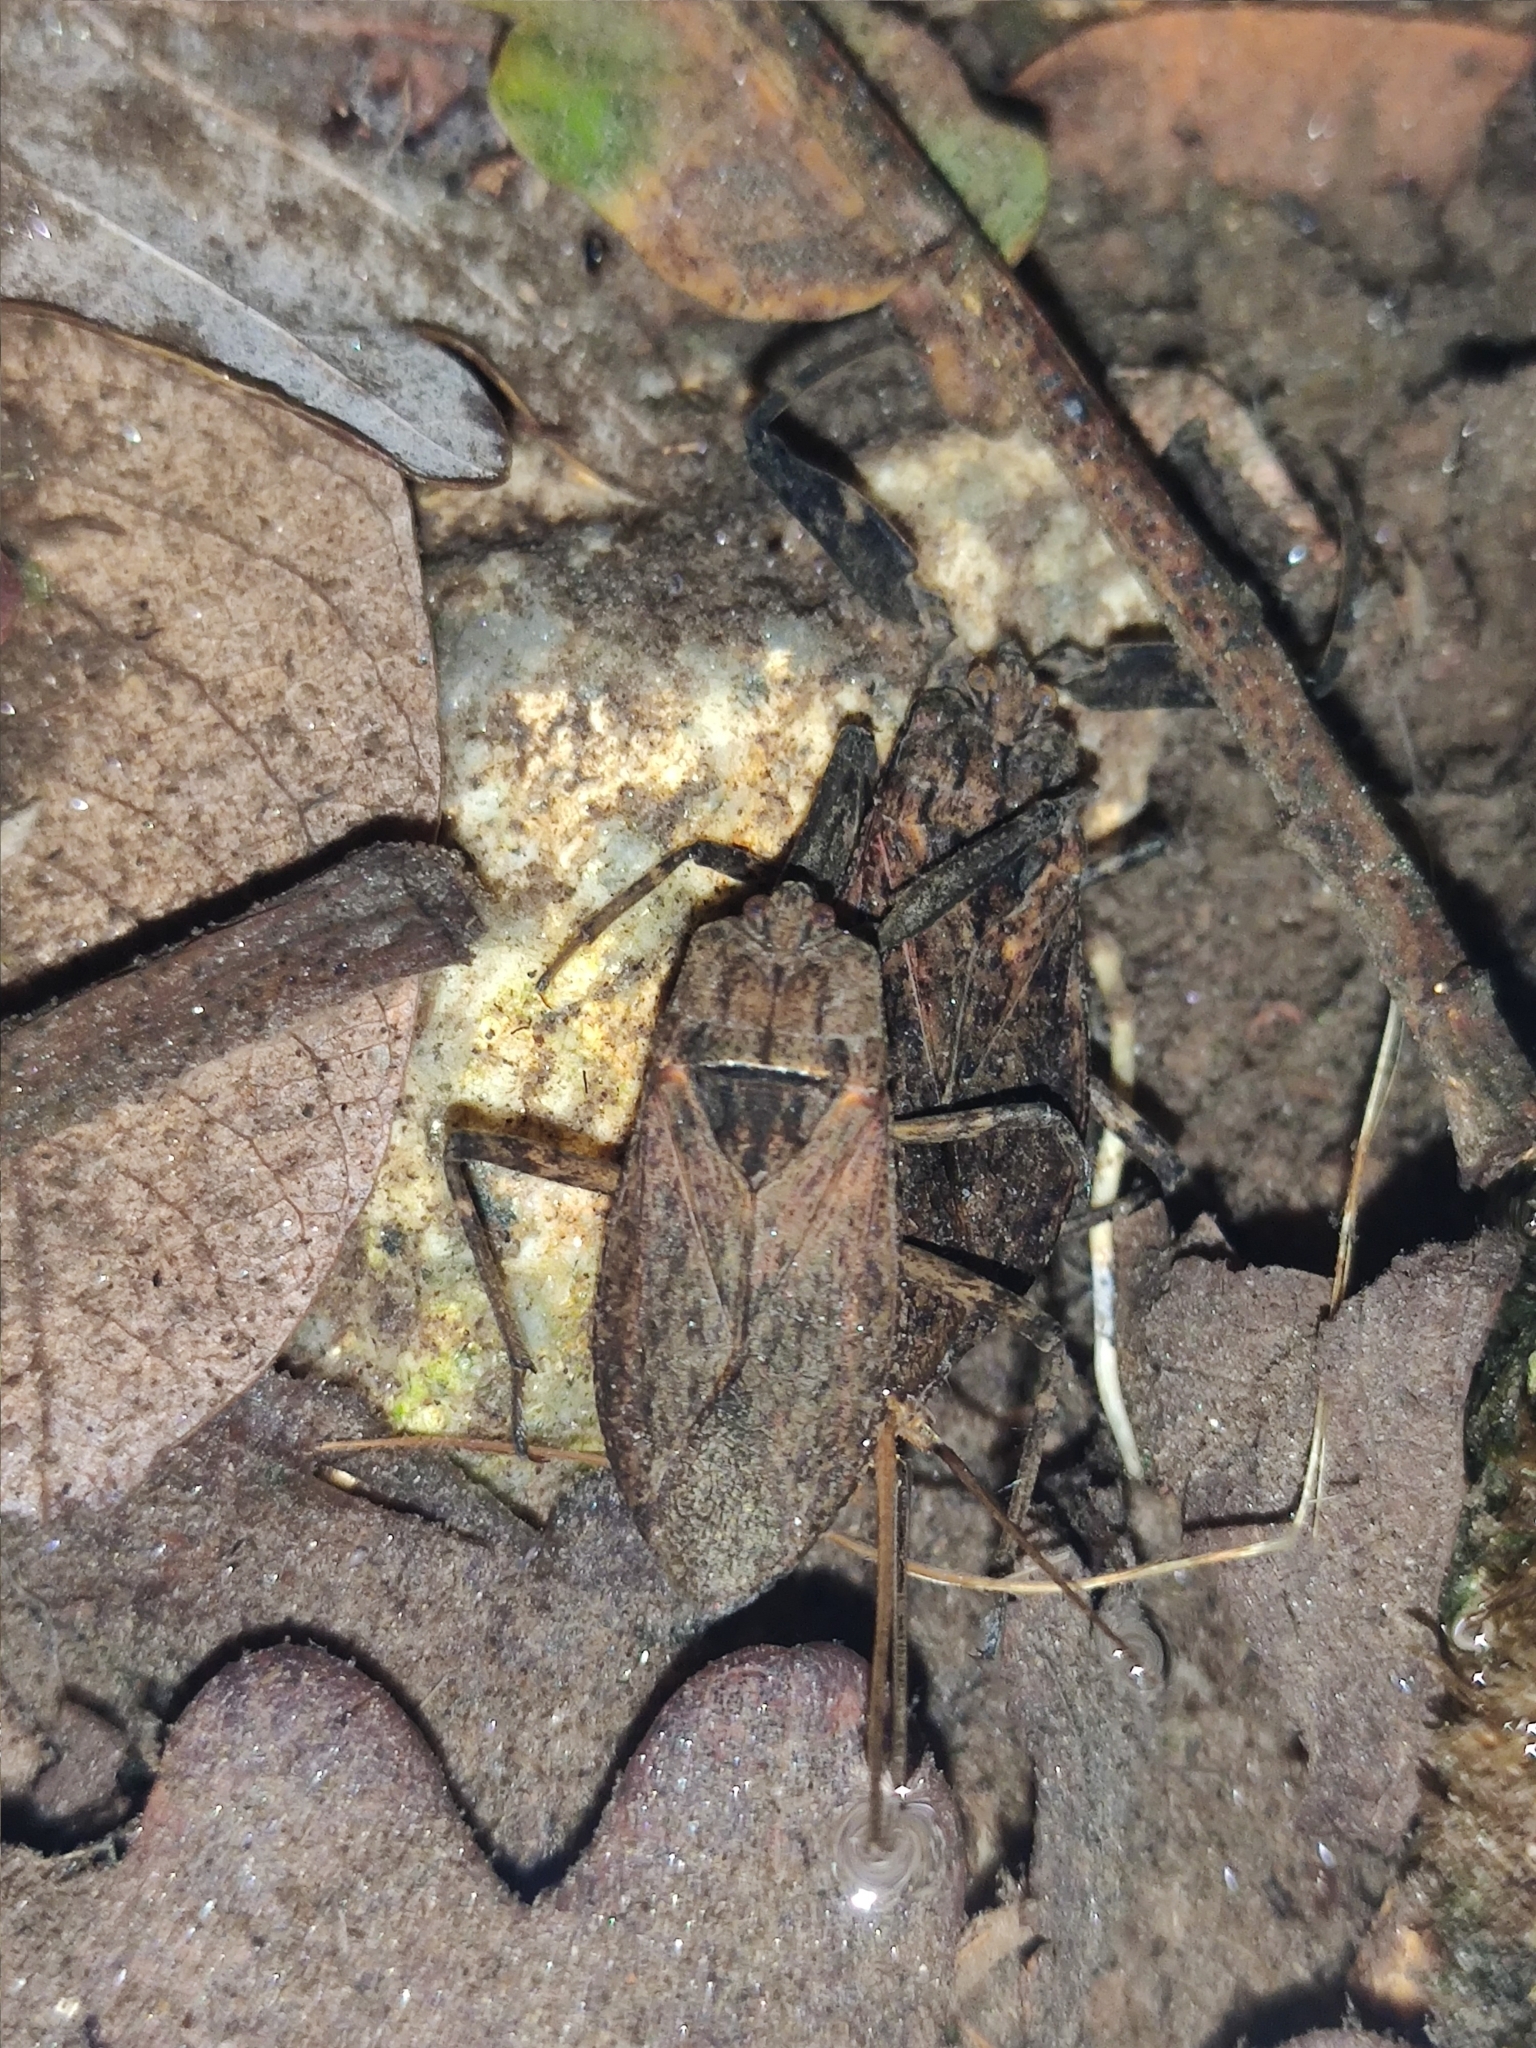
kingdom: Animalia
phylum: Arthropoda
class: Insecta
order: Hemiptera
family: Nepidae
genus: Nepa
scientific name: Nepa cinerea
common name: Water scorpion
